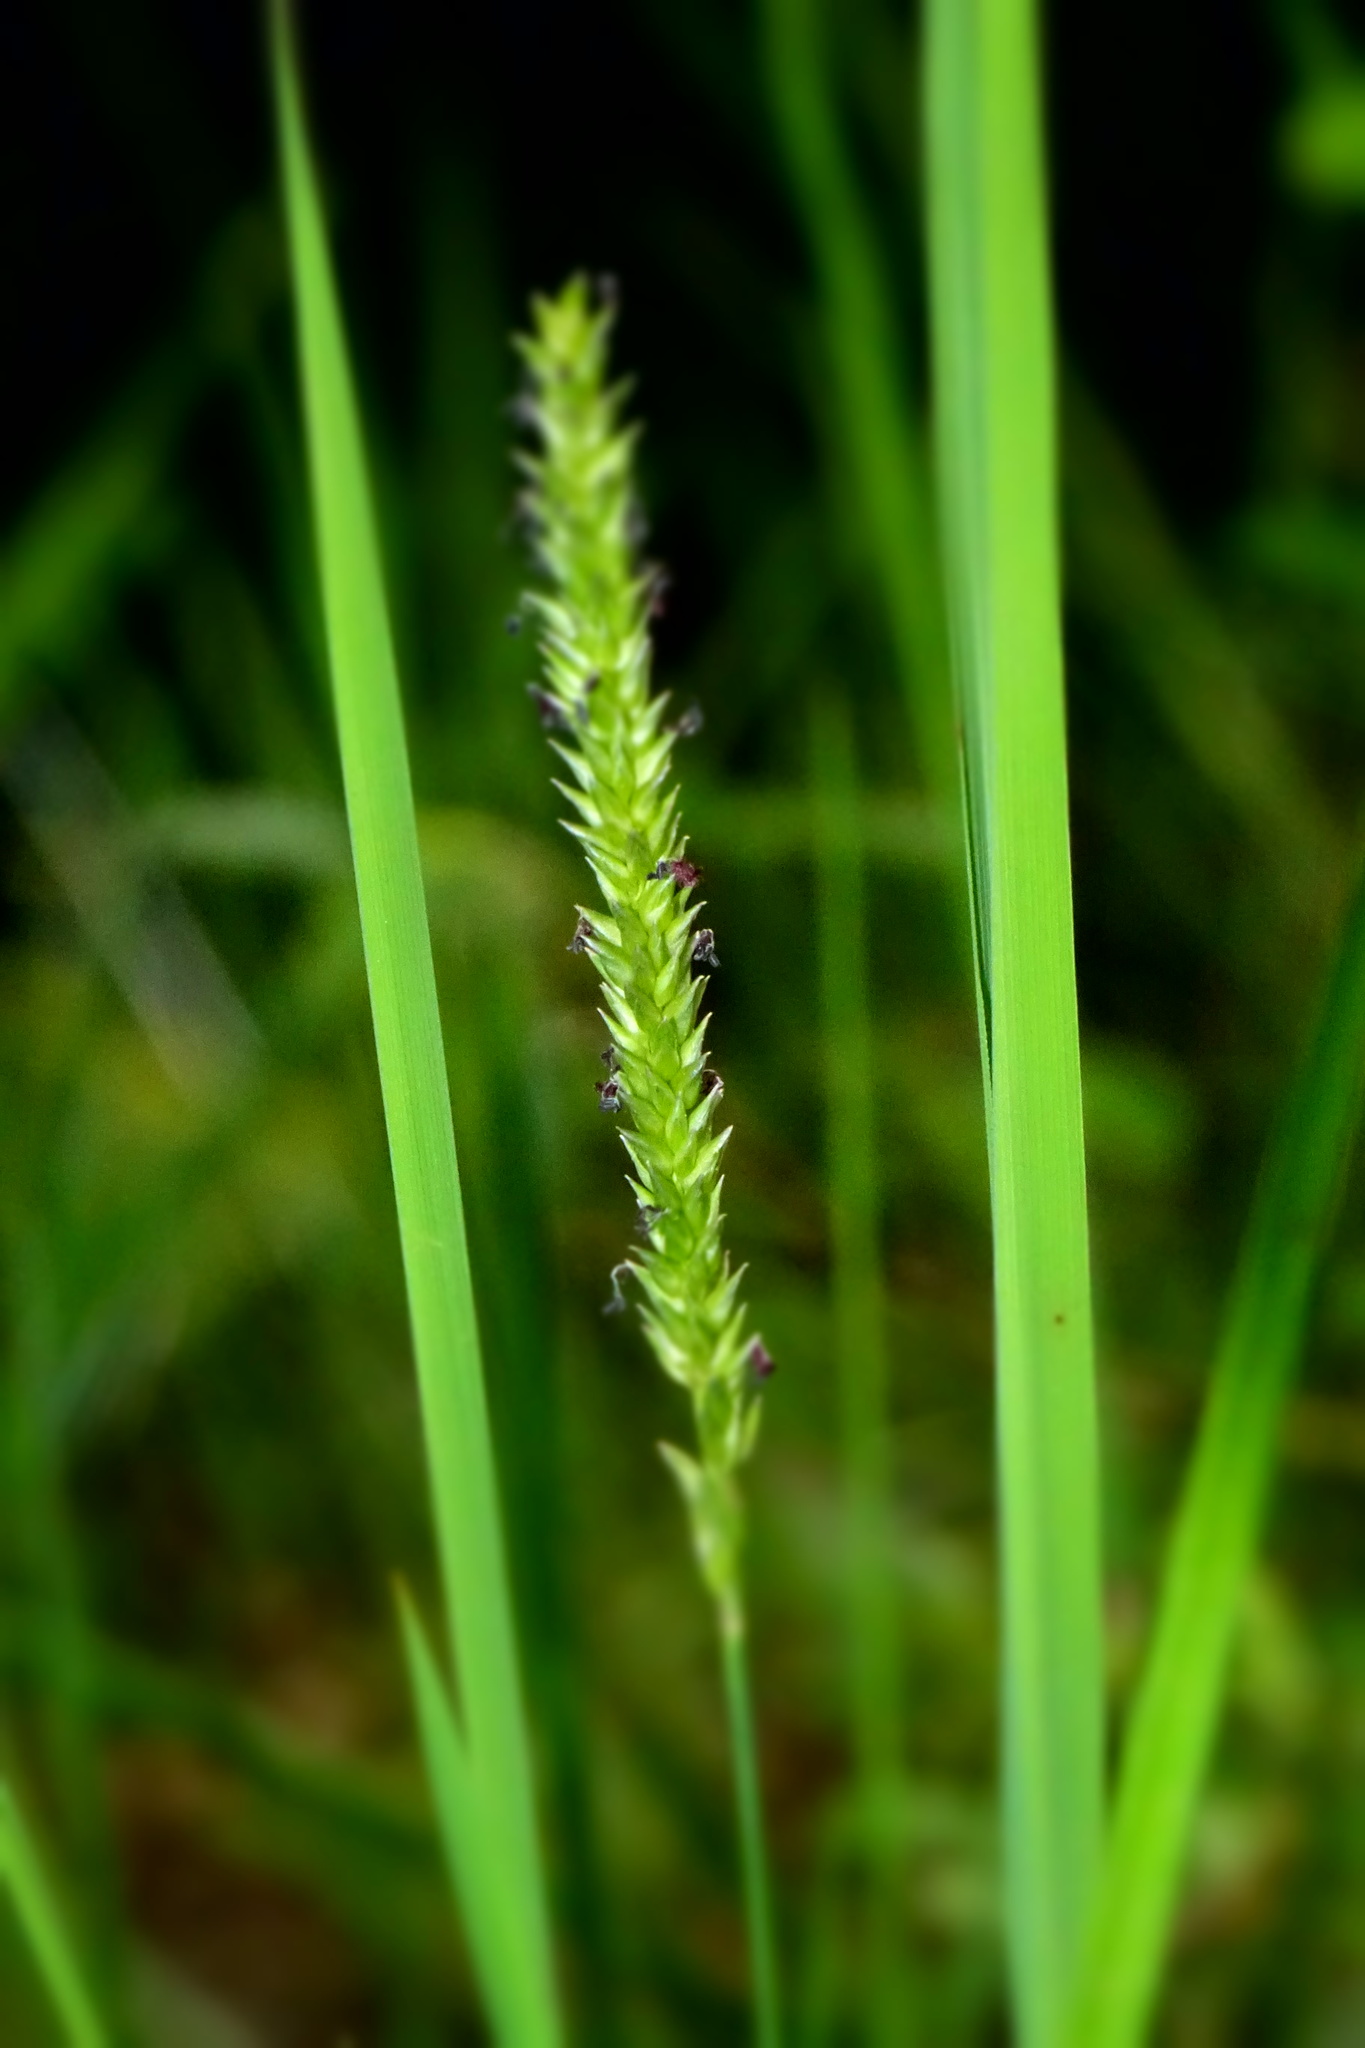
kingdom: Plantae
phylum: Tracheophyta
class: Liliopsida
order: Poales
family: Poaceae
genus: Sacciolepis
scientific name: Sacciolepis indica
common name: Glenwoodgrass
